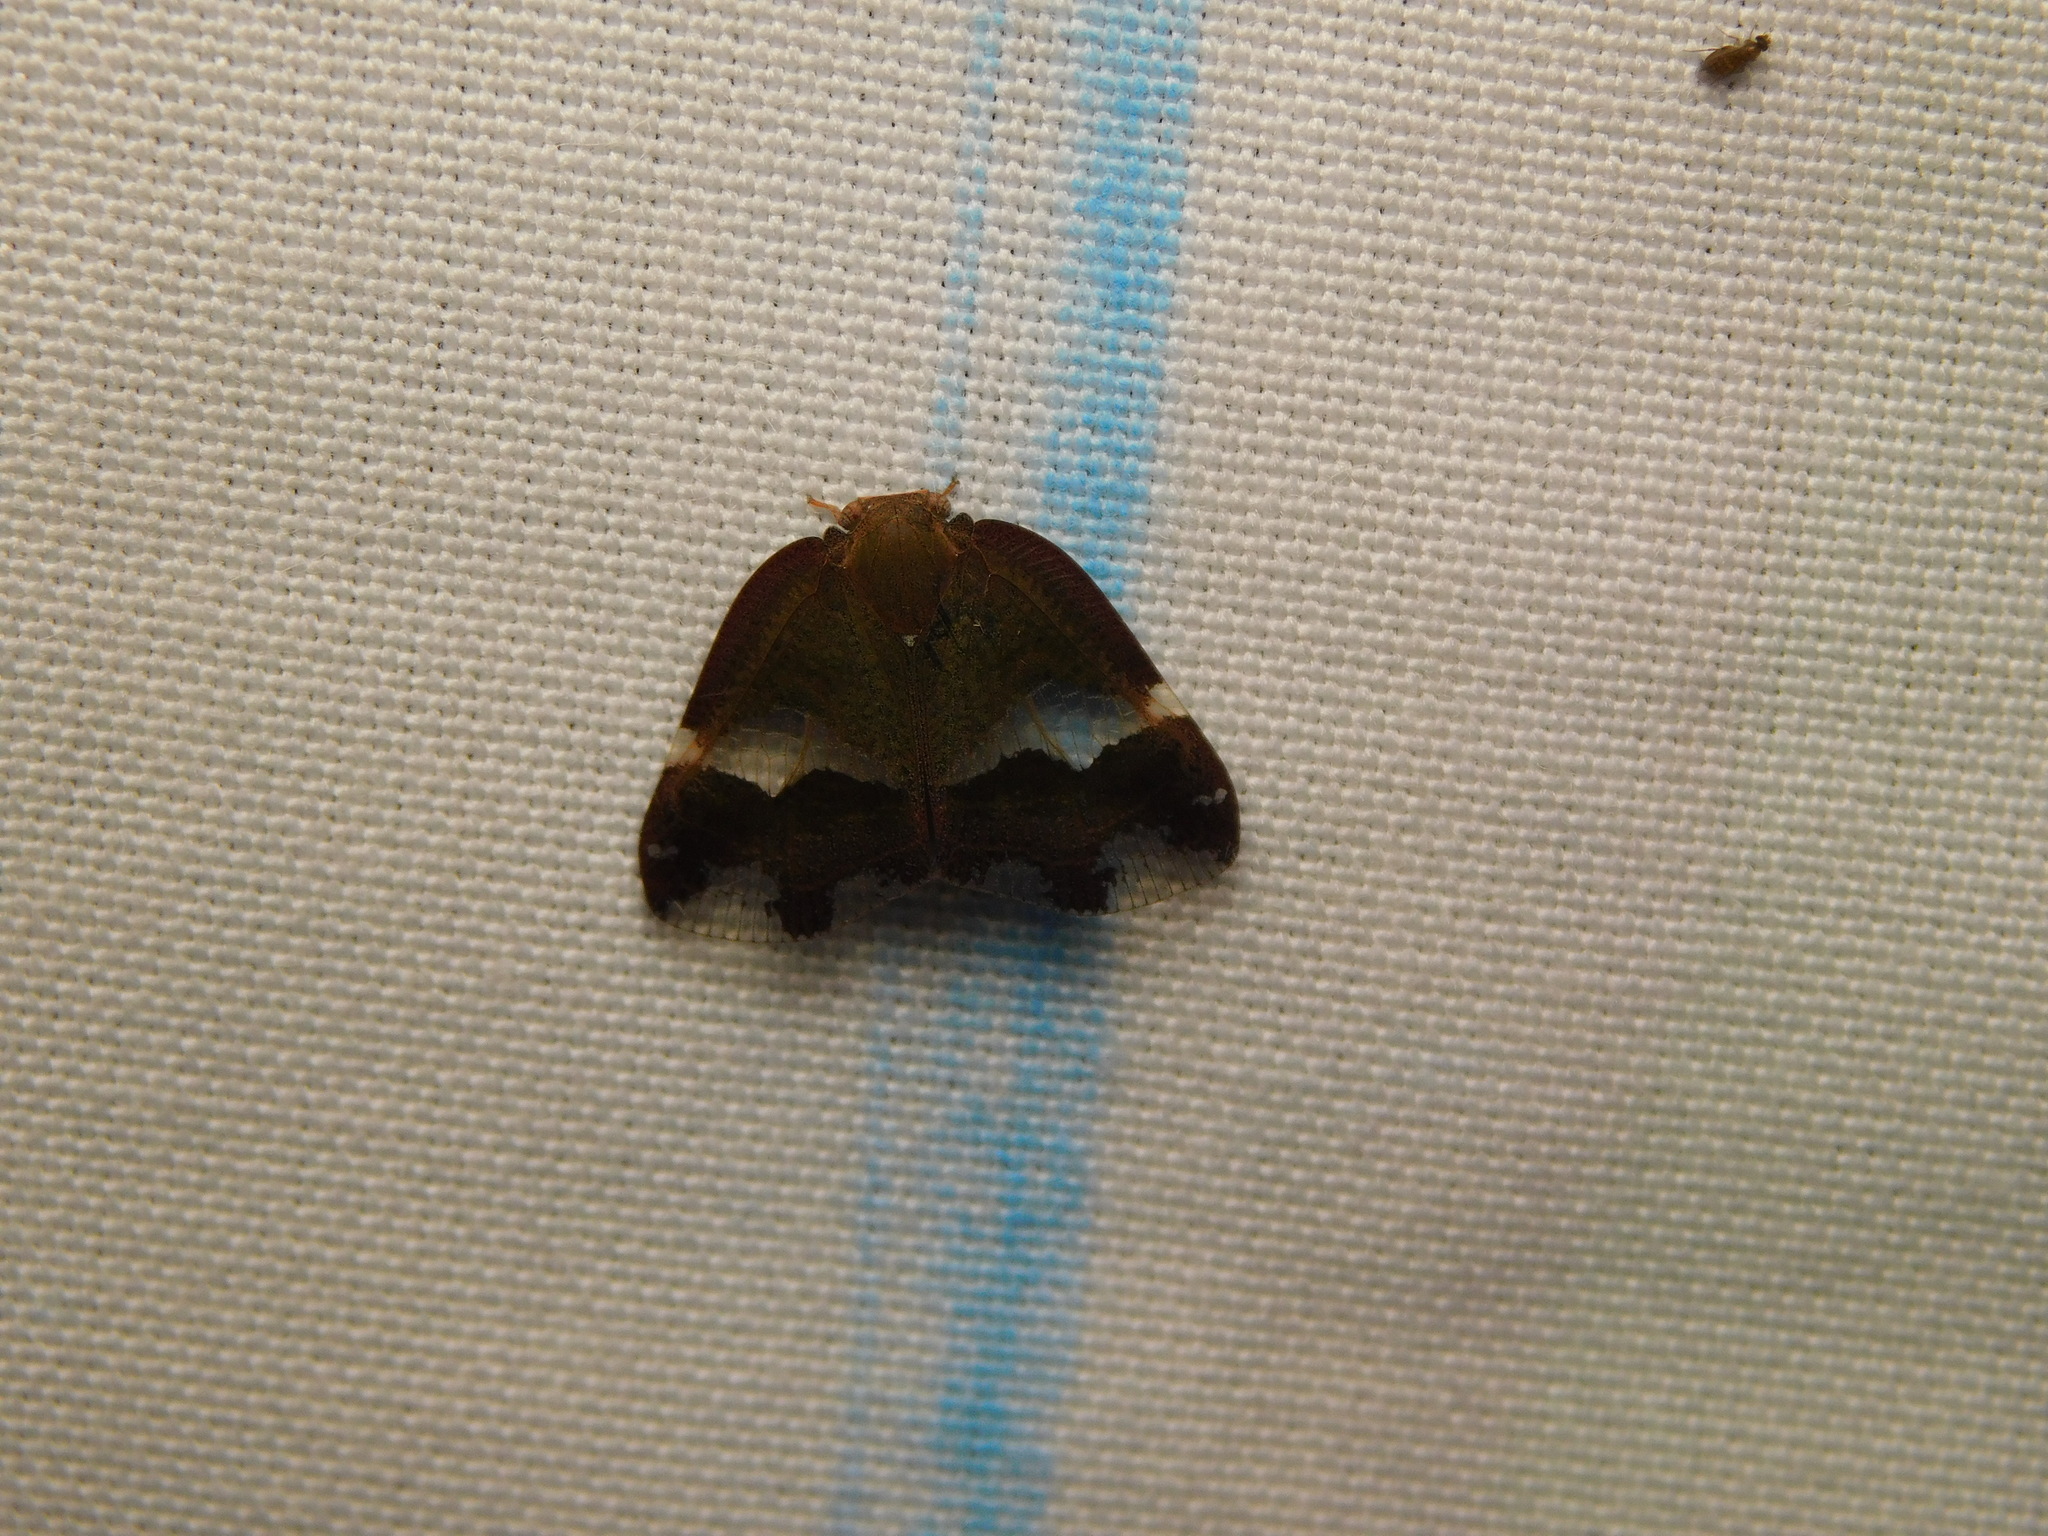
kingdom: Animalia
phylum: Arthropoda
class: Insecta
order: Hemiptera
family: Ricaniidae
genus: Ricania
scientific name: Ricania fenestrata
